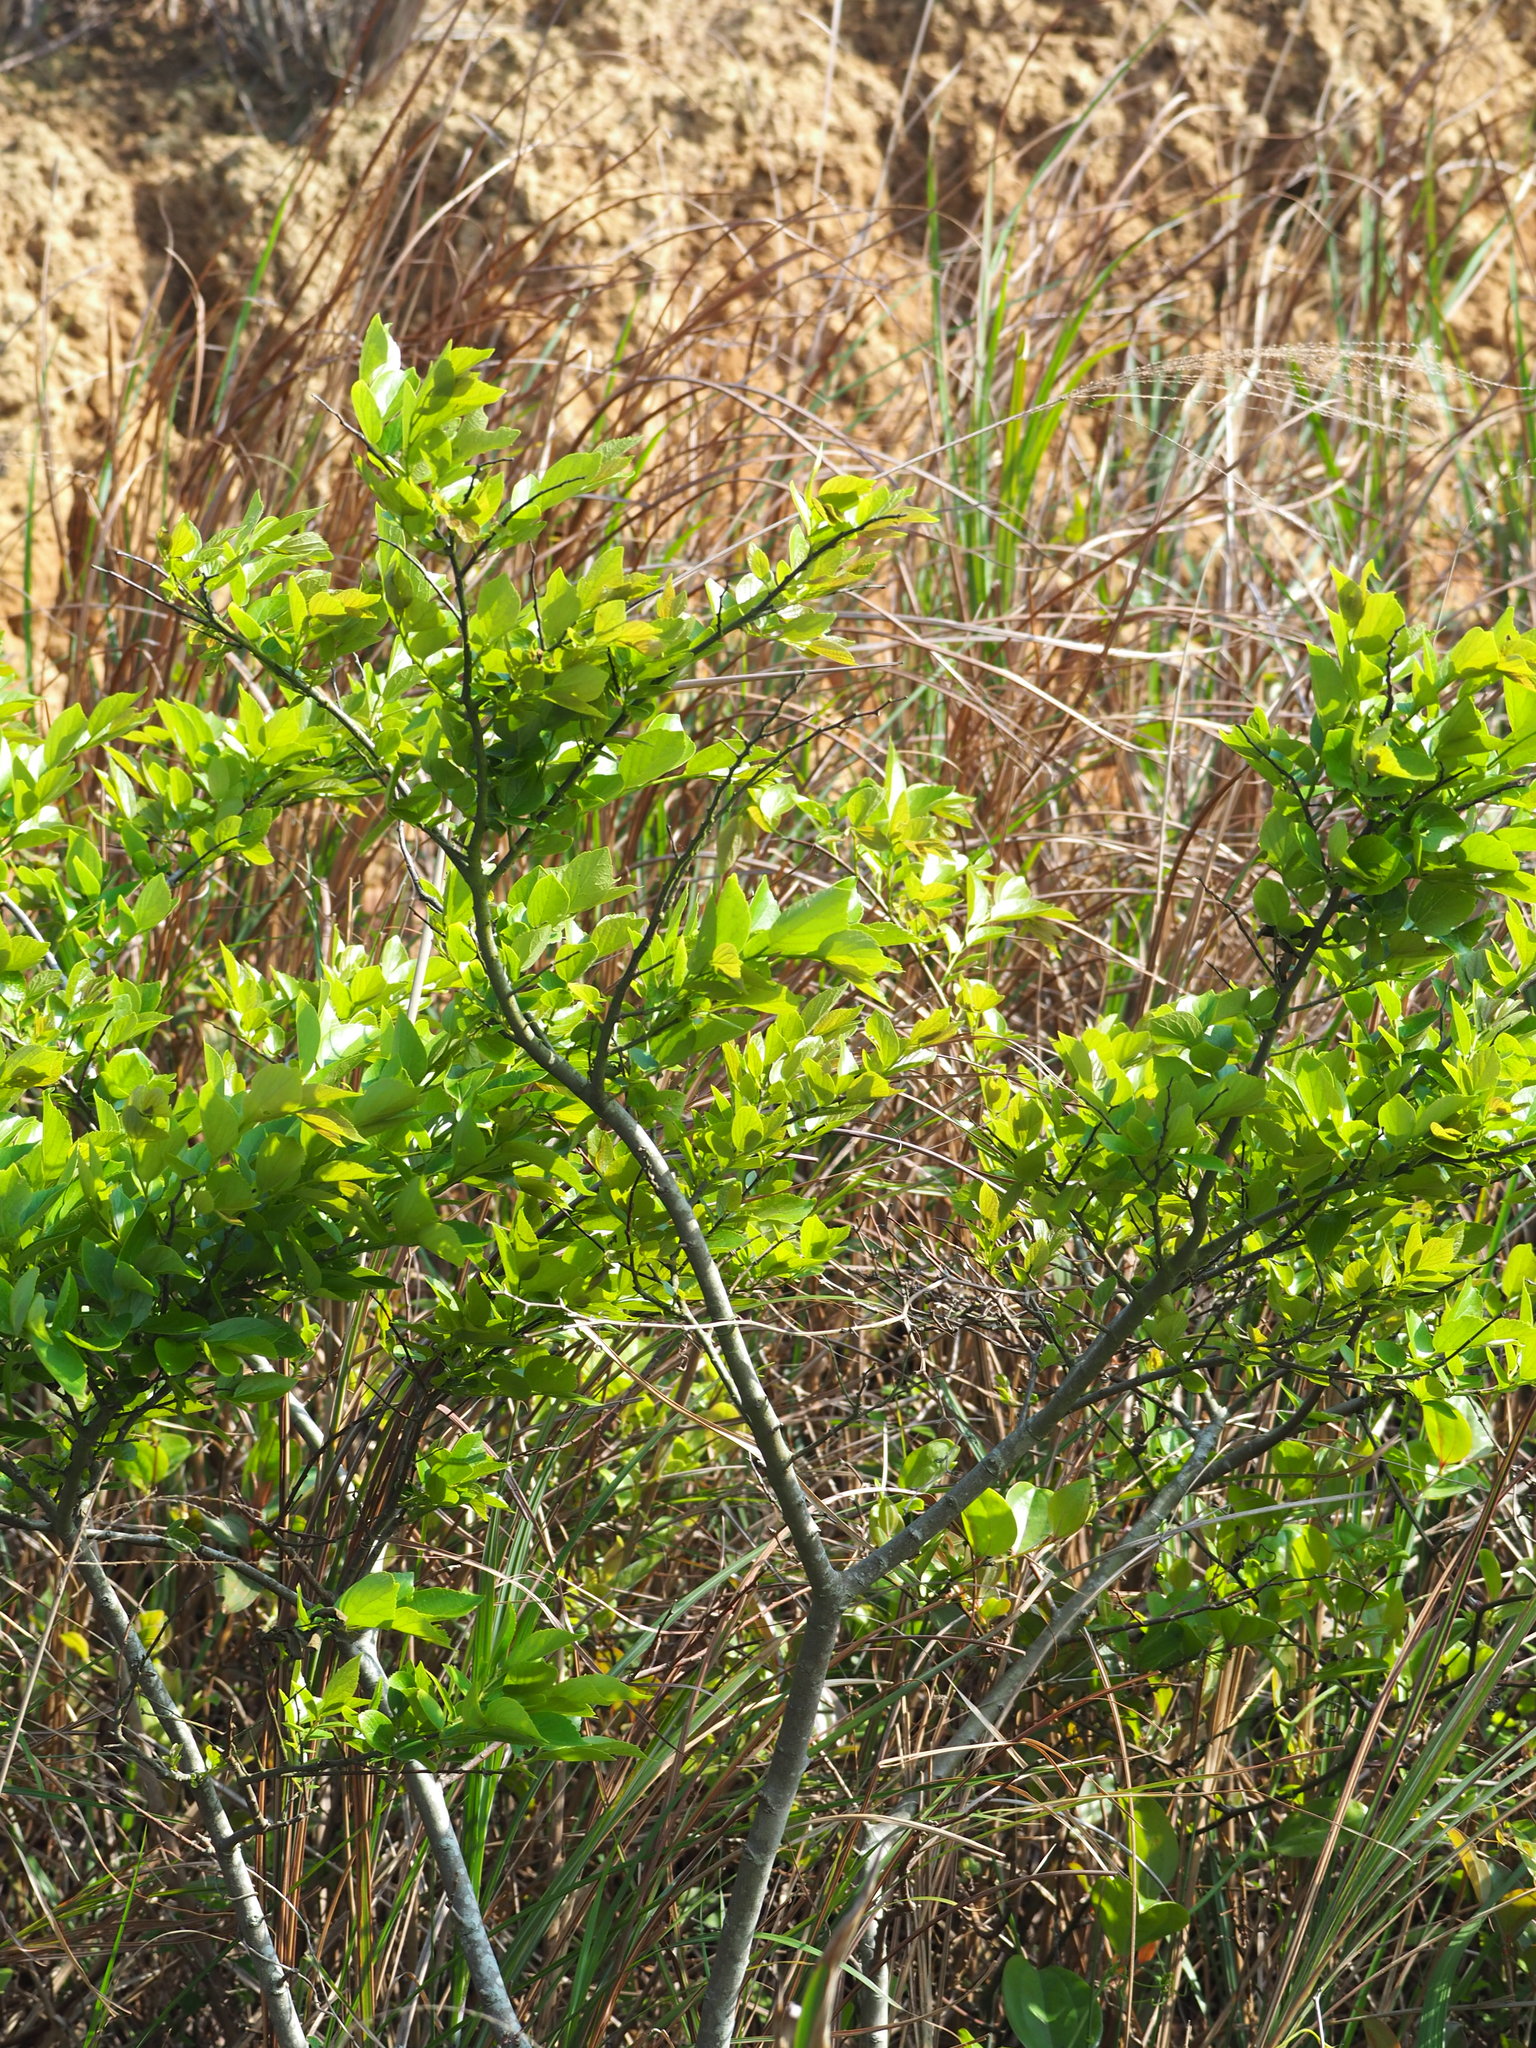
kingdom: Plantae
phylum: Tracheophyta
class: Magnoliopsida
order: Rosales
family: Cannabaceae
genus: Celtis
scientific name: Celtis sinensis
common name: Chinese hackberry
